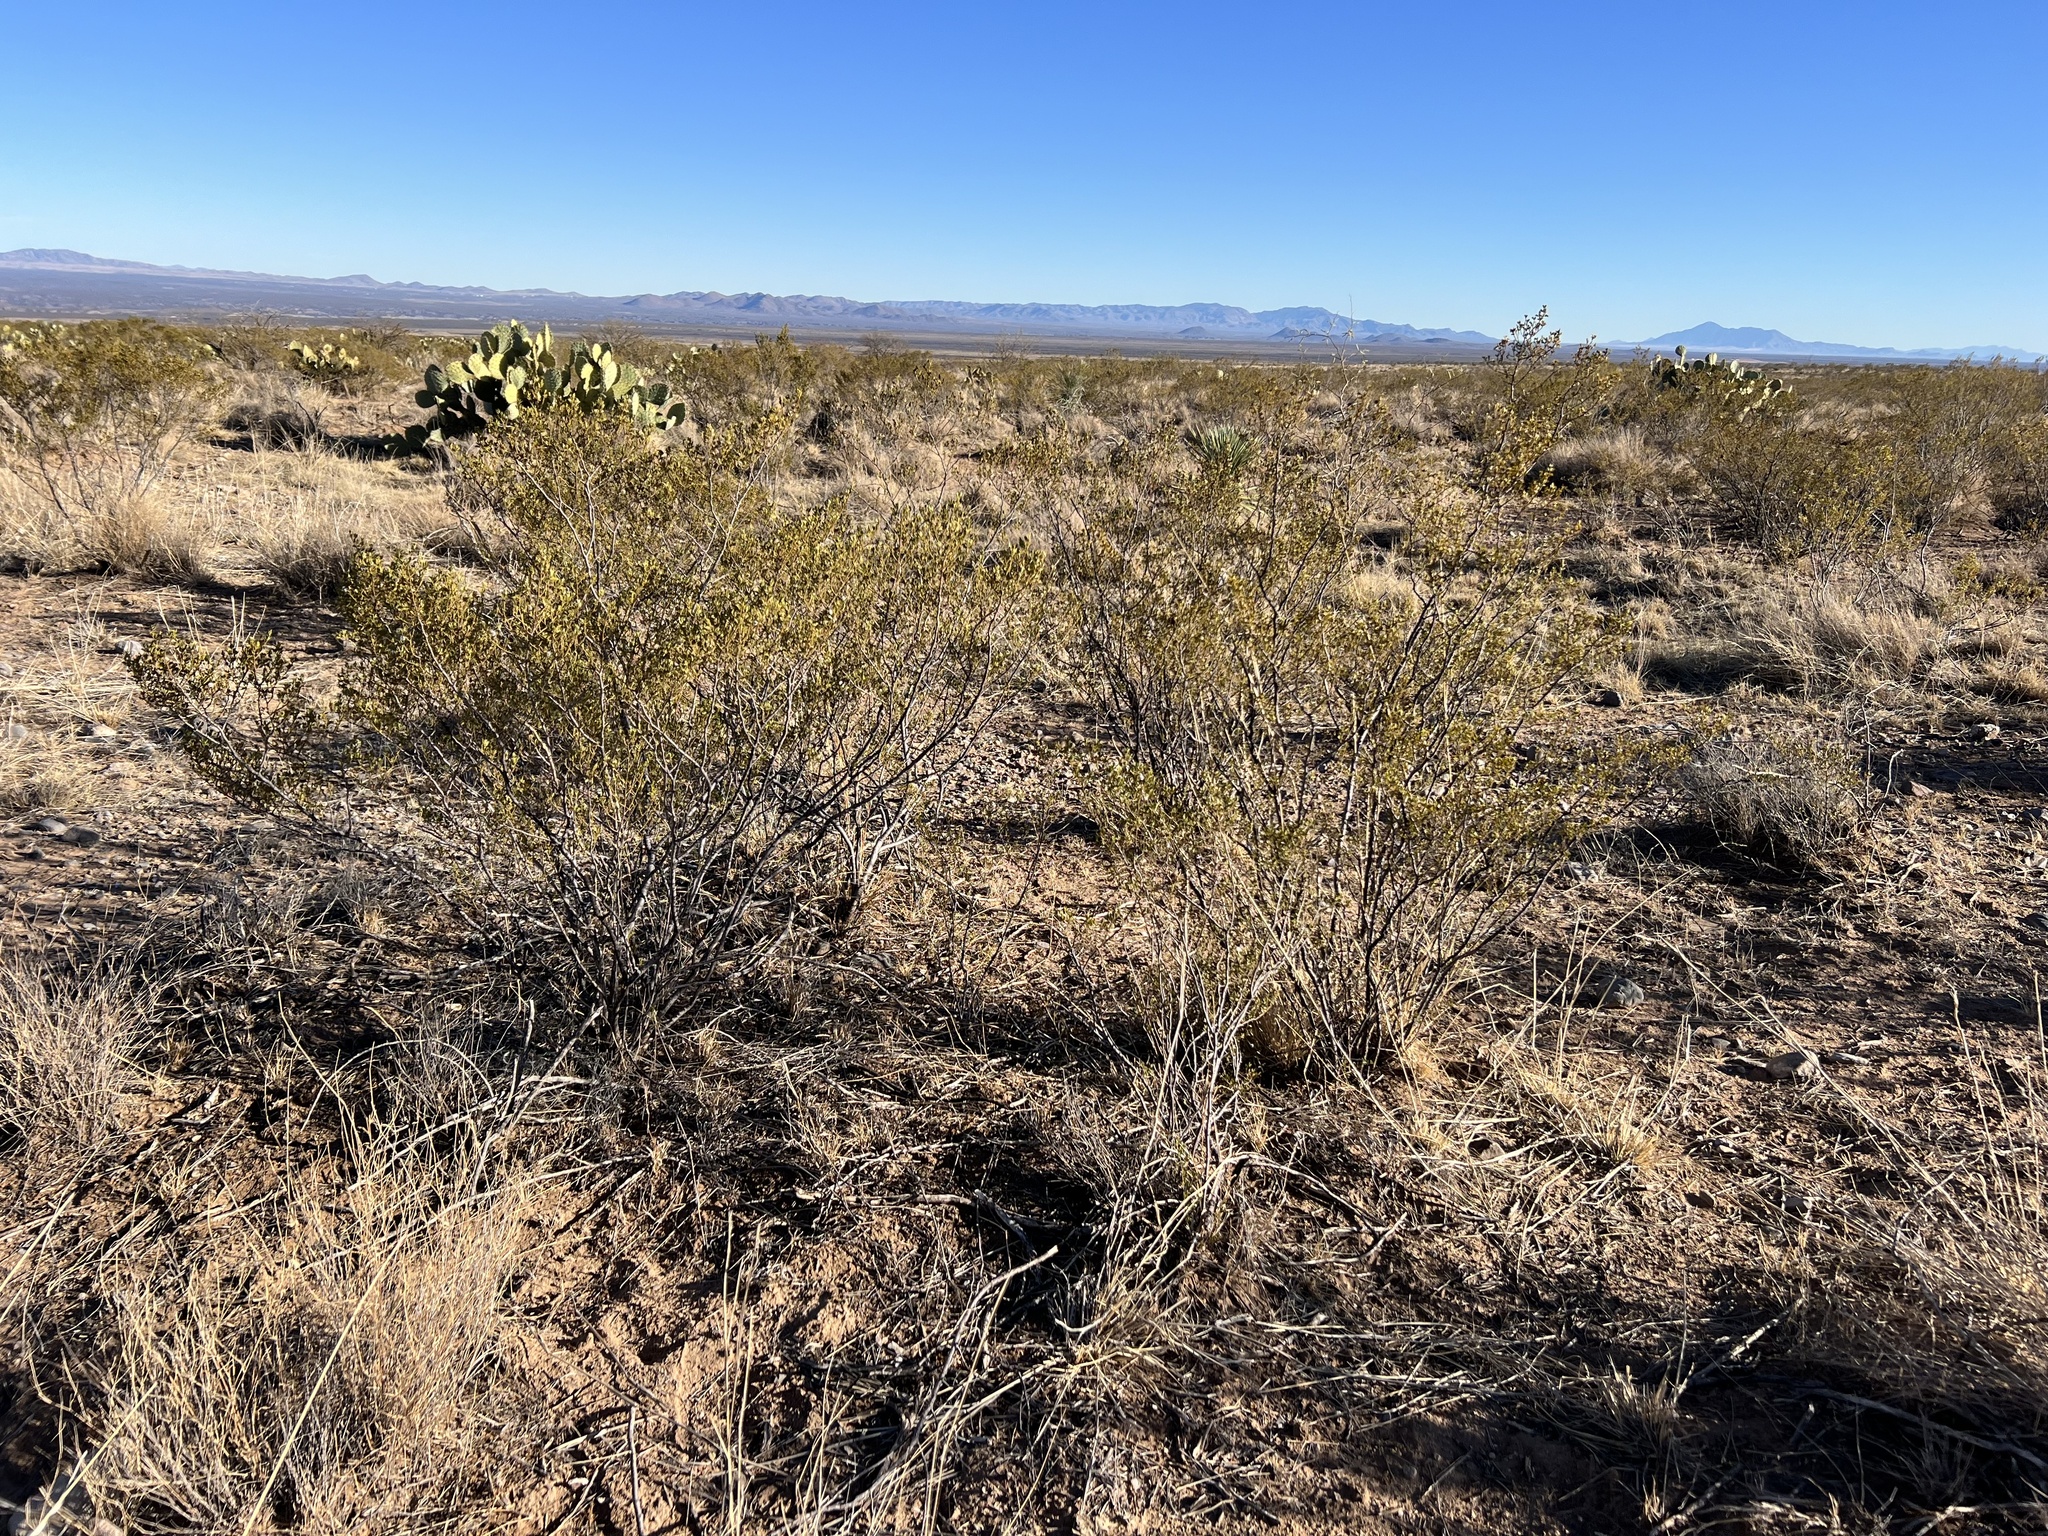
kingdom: Plantae
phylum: Tracheophyta
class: Magnoliopsida
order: Zygophyllales
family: Zygophyllaceae
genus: Larrea
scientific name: Larrea tridentata
